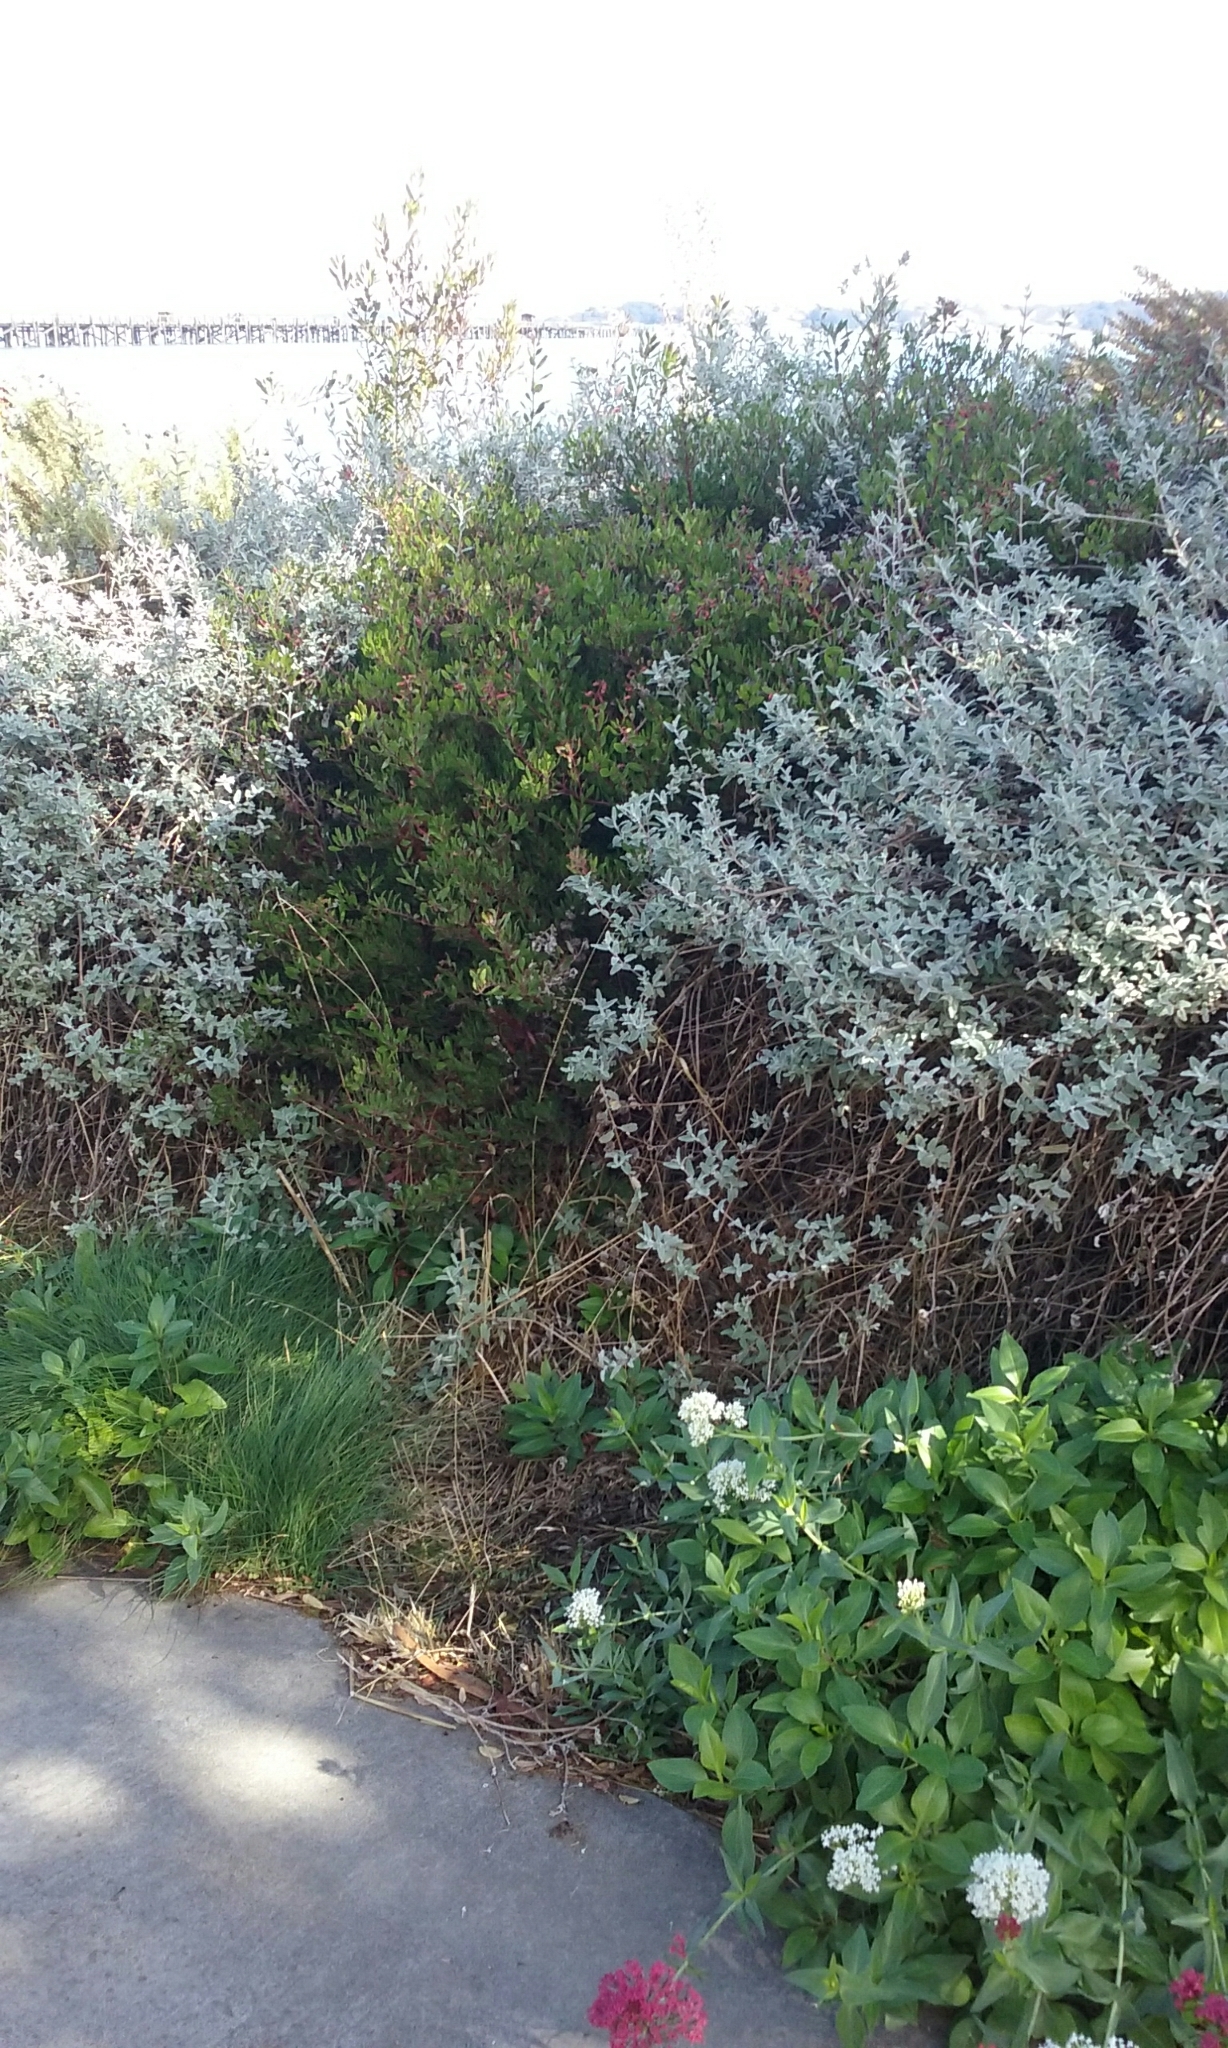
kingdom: Animalia
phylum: Arthropoda
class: Insecta
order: Hemiptera
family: Aphididae
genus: Tamalia
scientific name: Tamalia coweni
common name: Manzanita leafgall aphid
